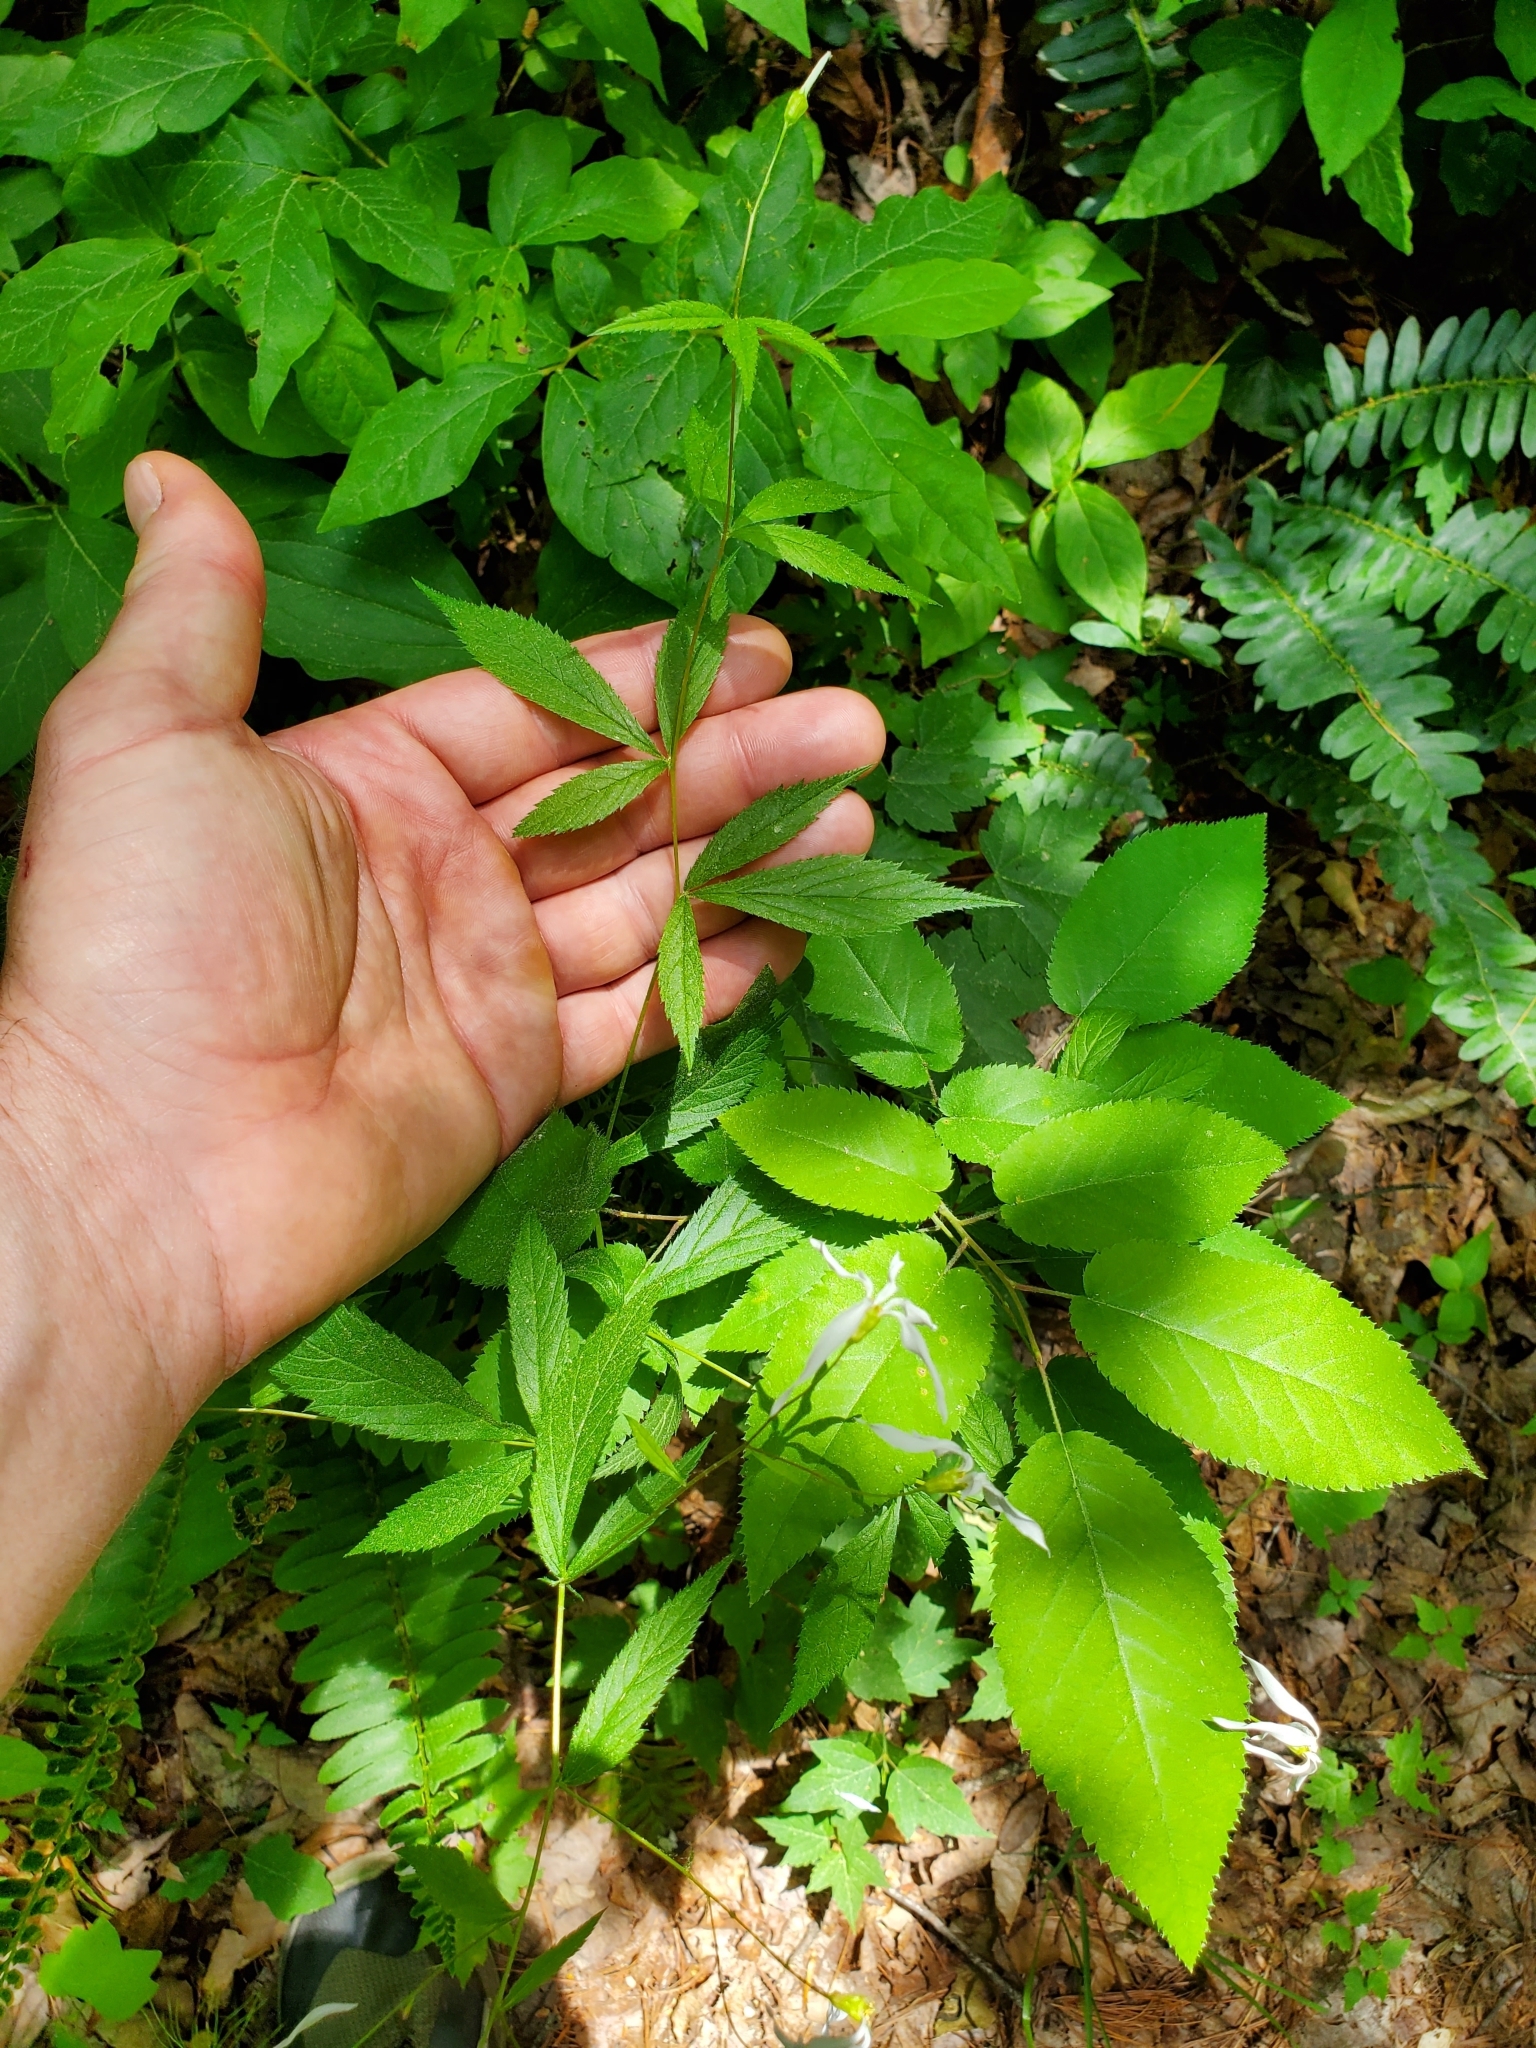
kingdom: Plantae
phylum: Tracheophyta
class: Magnoliopsida
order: Rosales
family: Rosaceae
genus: Gillenia
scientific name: Gillenia trifoliata
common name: Bowman's-root
